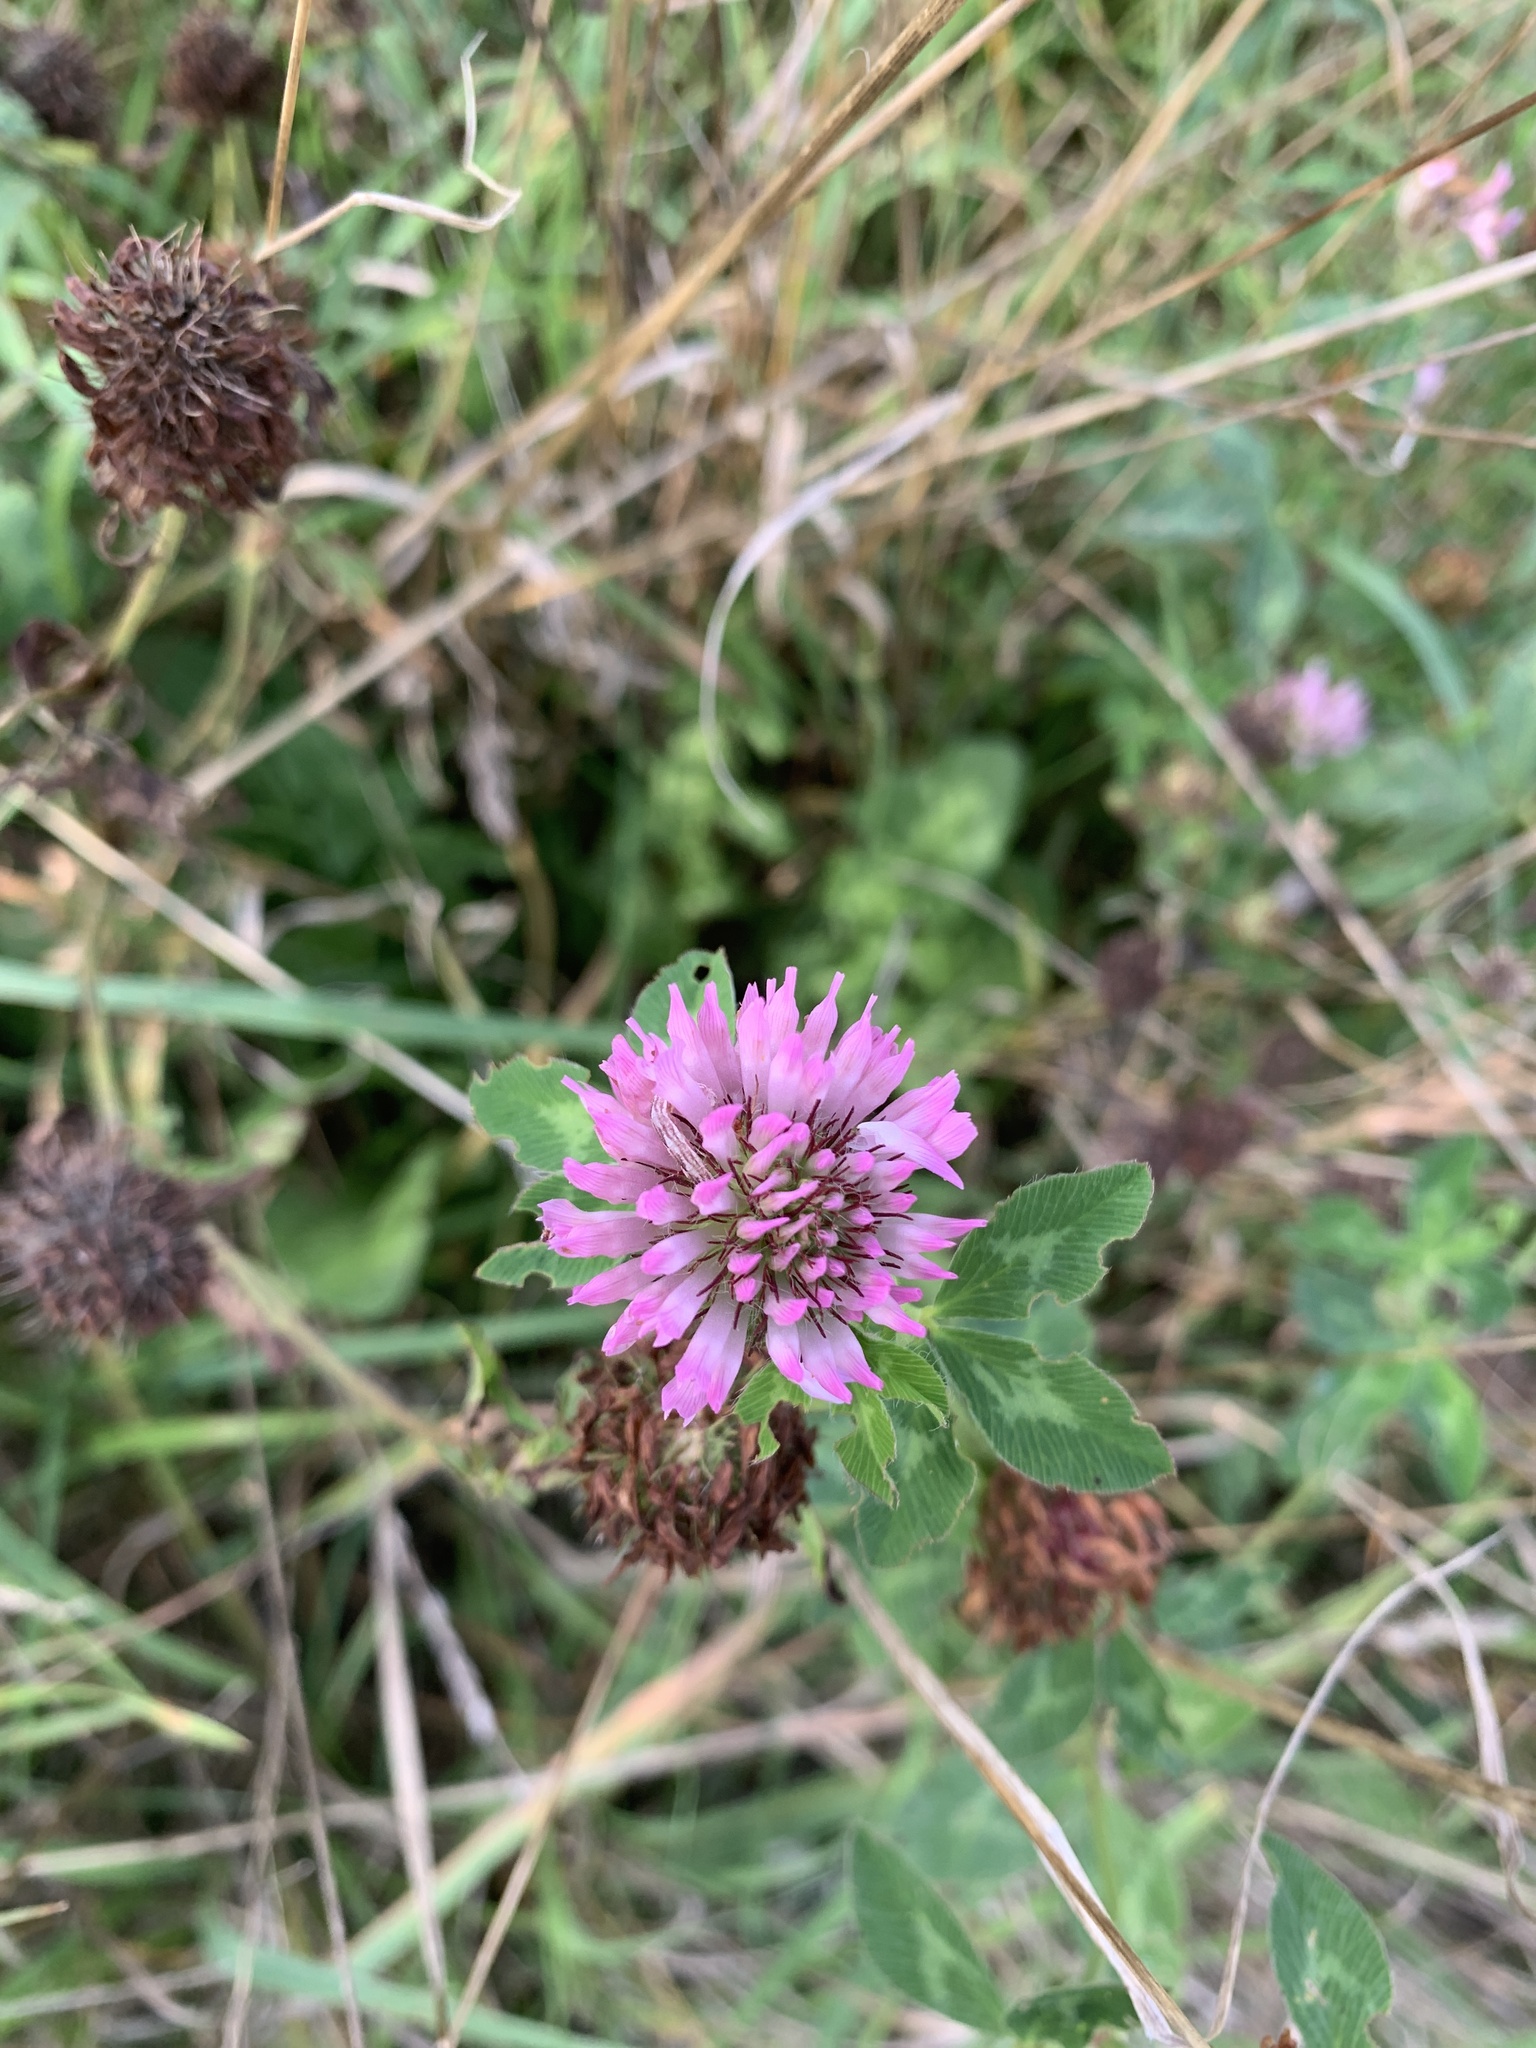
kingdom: Plantae
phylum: Tracheophyta
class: Magnoliopsida
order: Fabales
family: Fabaceae
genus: Trifolium
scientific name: Trifolium pratense
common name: Red clover
